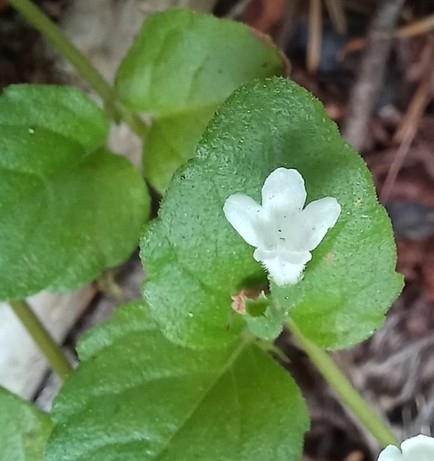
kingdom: Plantae
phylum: Tracheophyta
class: Magnoliopsida
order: Lamiales
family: Lamiaceae
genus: Micromeria
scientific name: Micromeria douglasii
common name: Yerba buena
